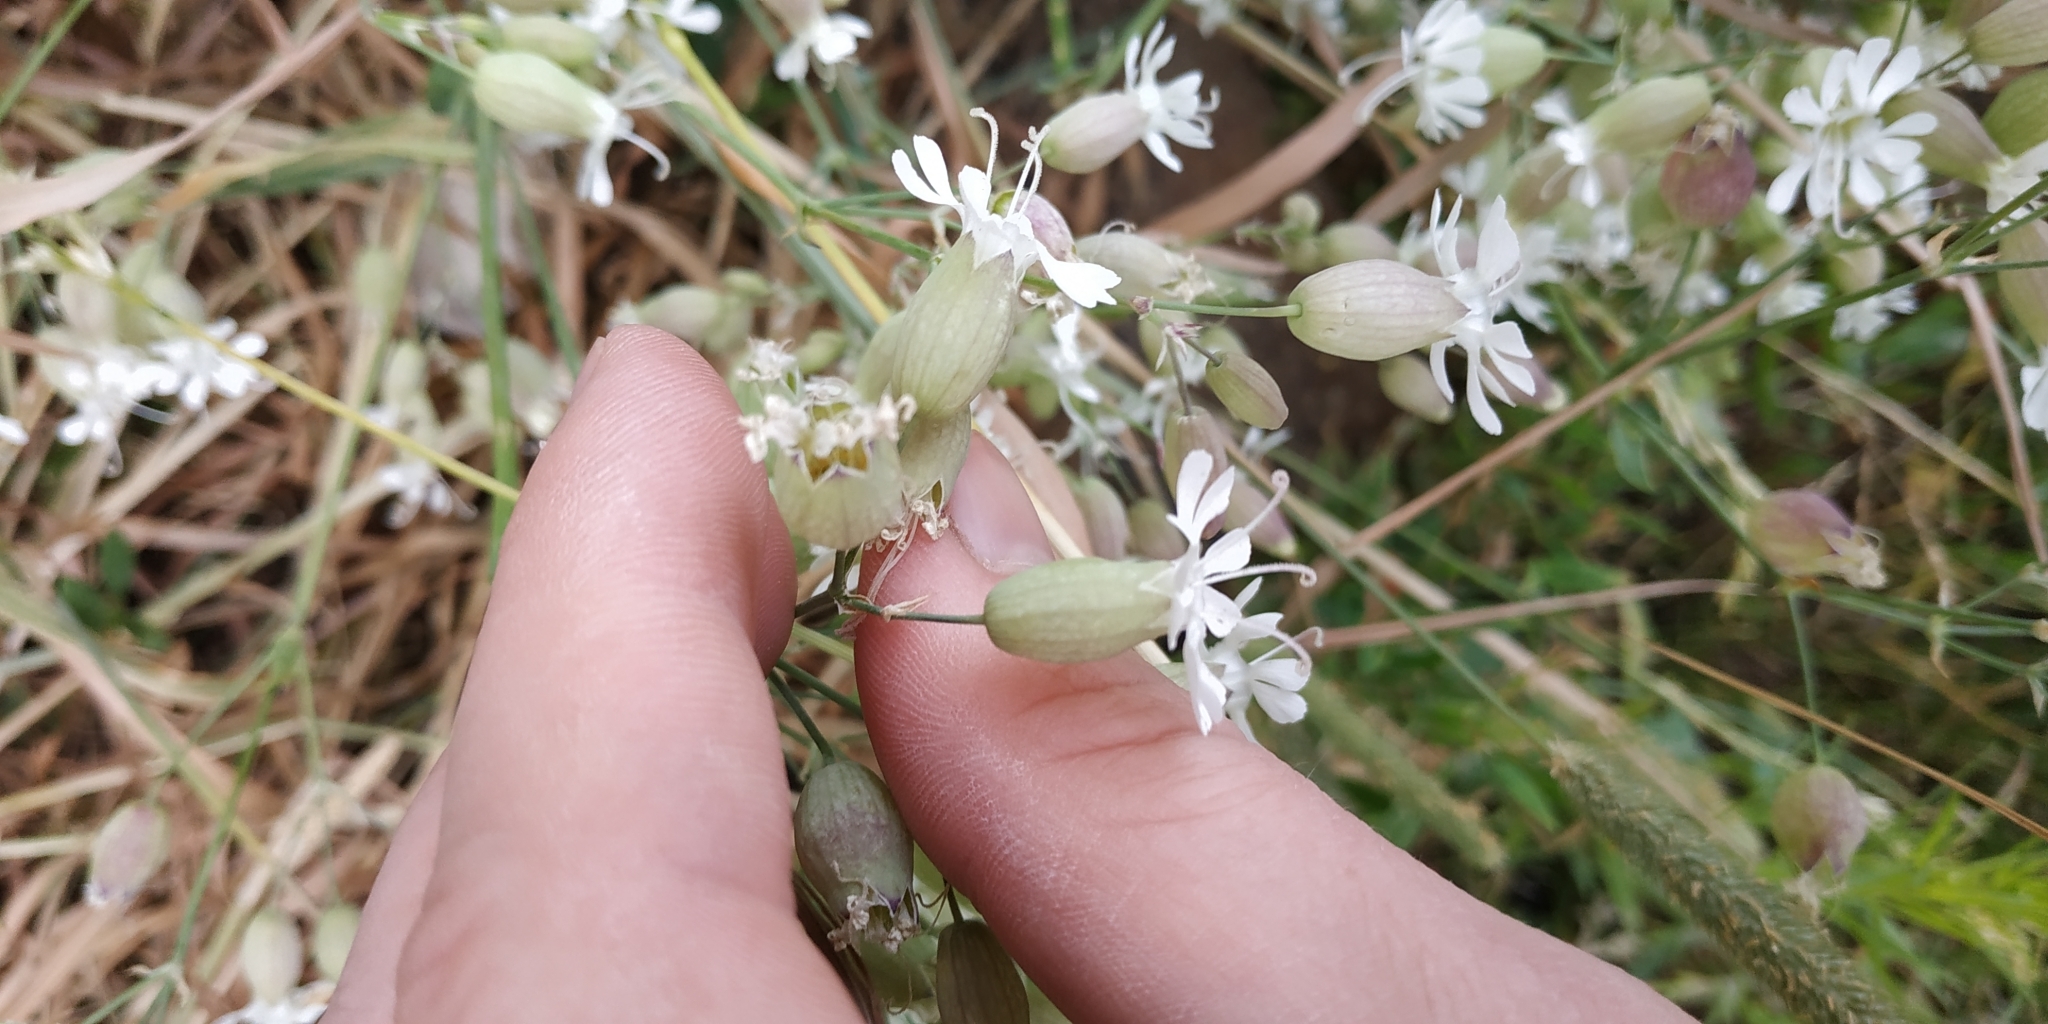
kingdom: Plantae
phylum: Tracheophyta
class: Magnoliopsida
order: Caryophyllales
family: Caryophyllaceae
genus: Silene
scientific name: Silene vulgaris
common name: Bladder campion
